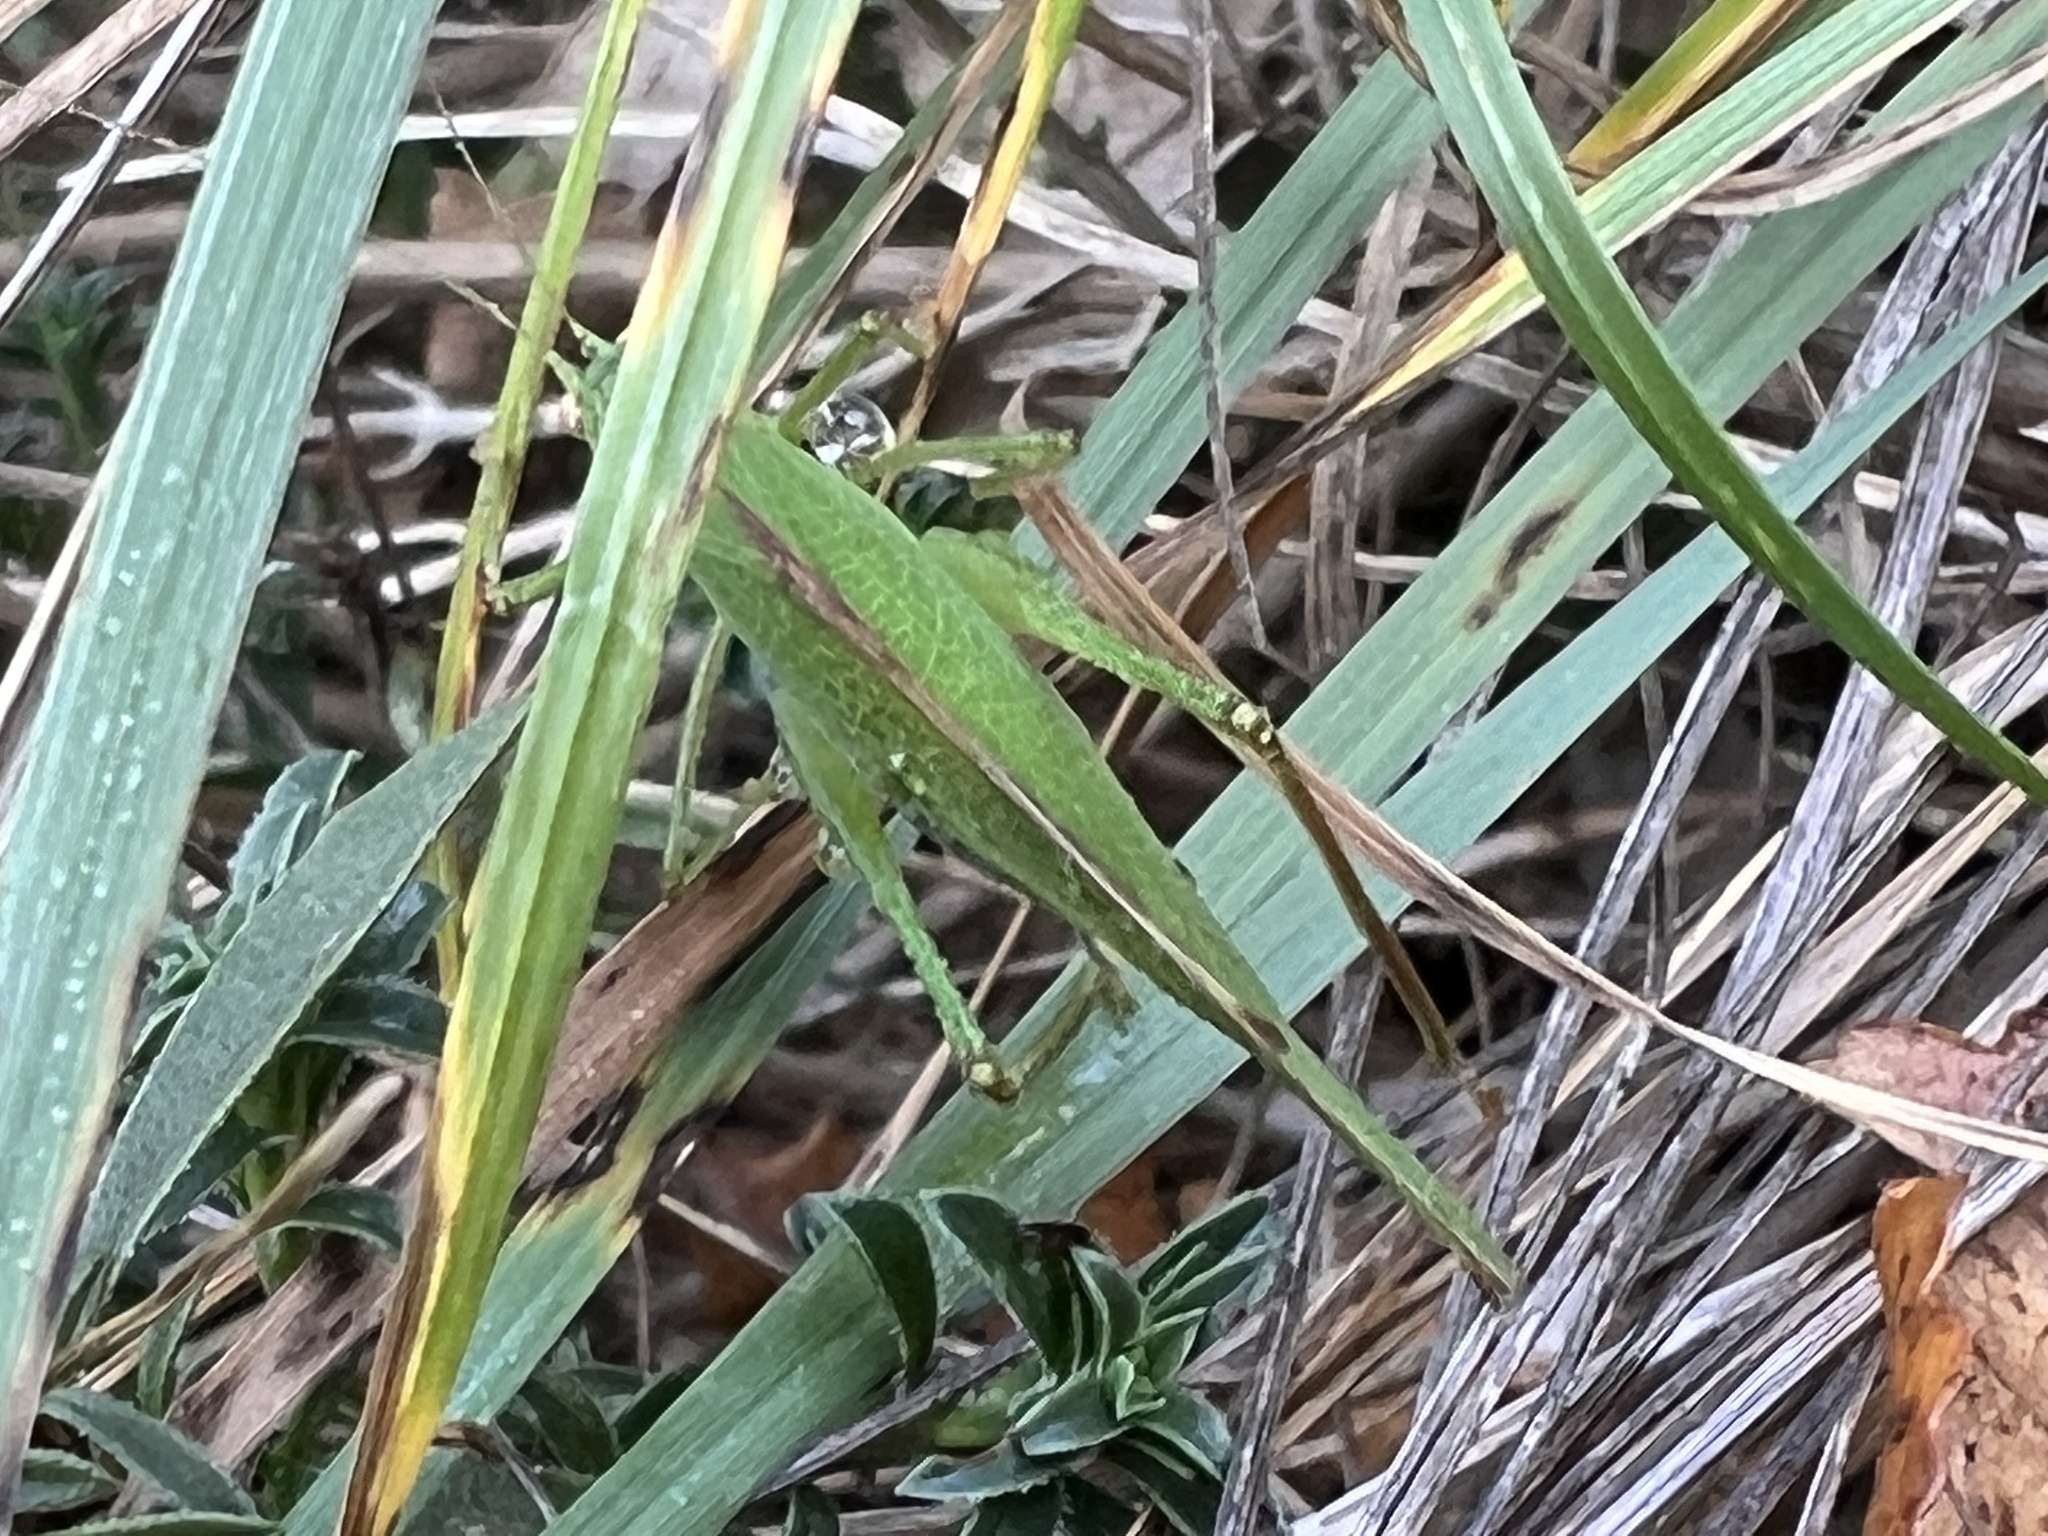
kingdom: Animalia
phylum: Arthropoda
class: Insecta
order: Orthoptera
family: Tettigoniidae
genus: Phaneroptera
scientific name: Phaneroptera nana
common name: Southern sickle bush-cricket
